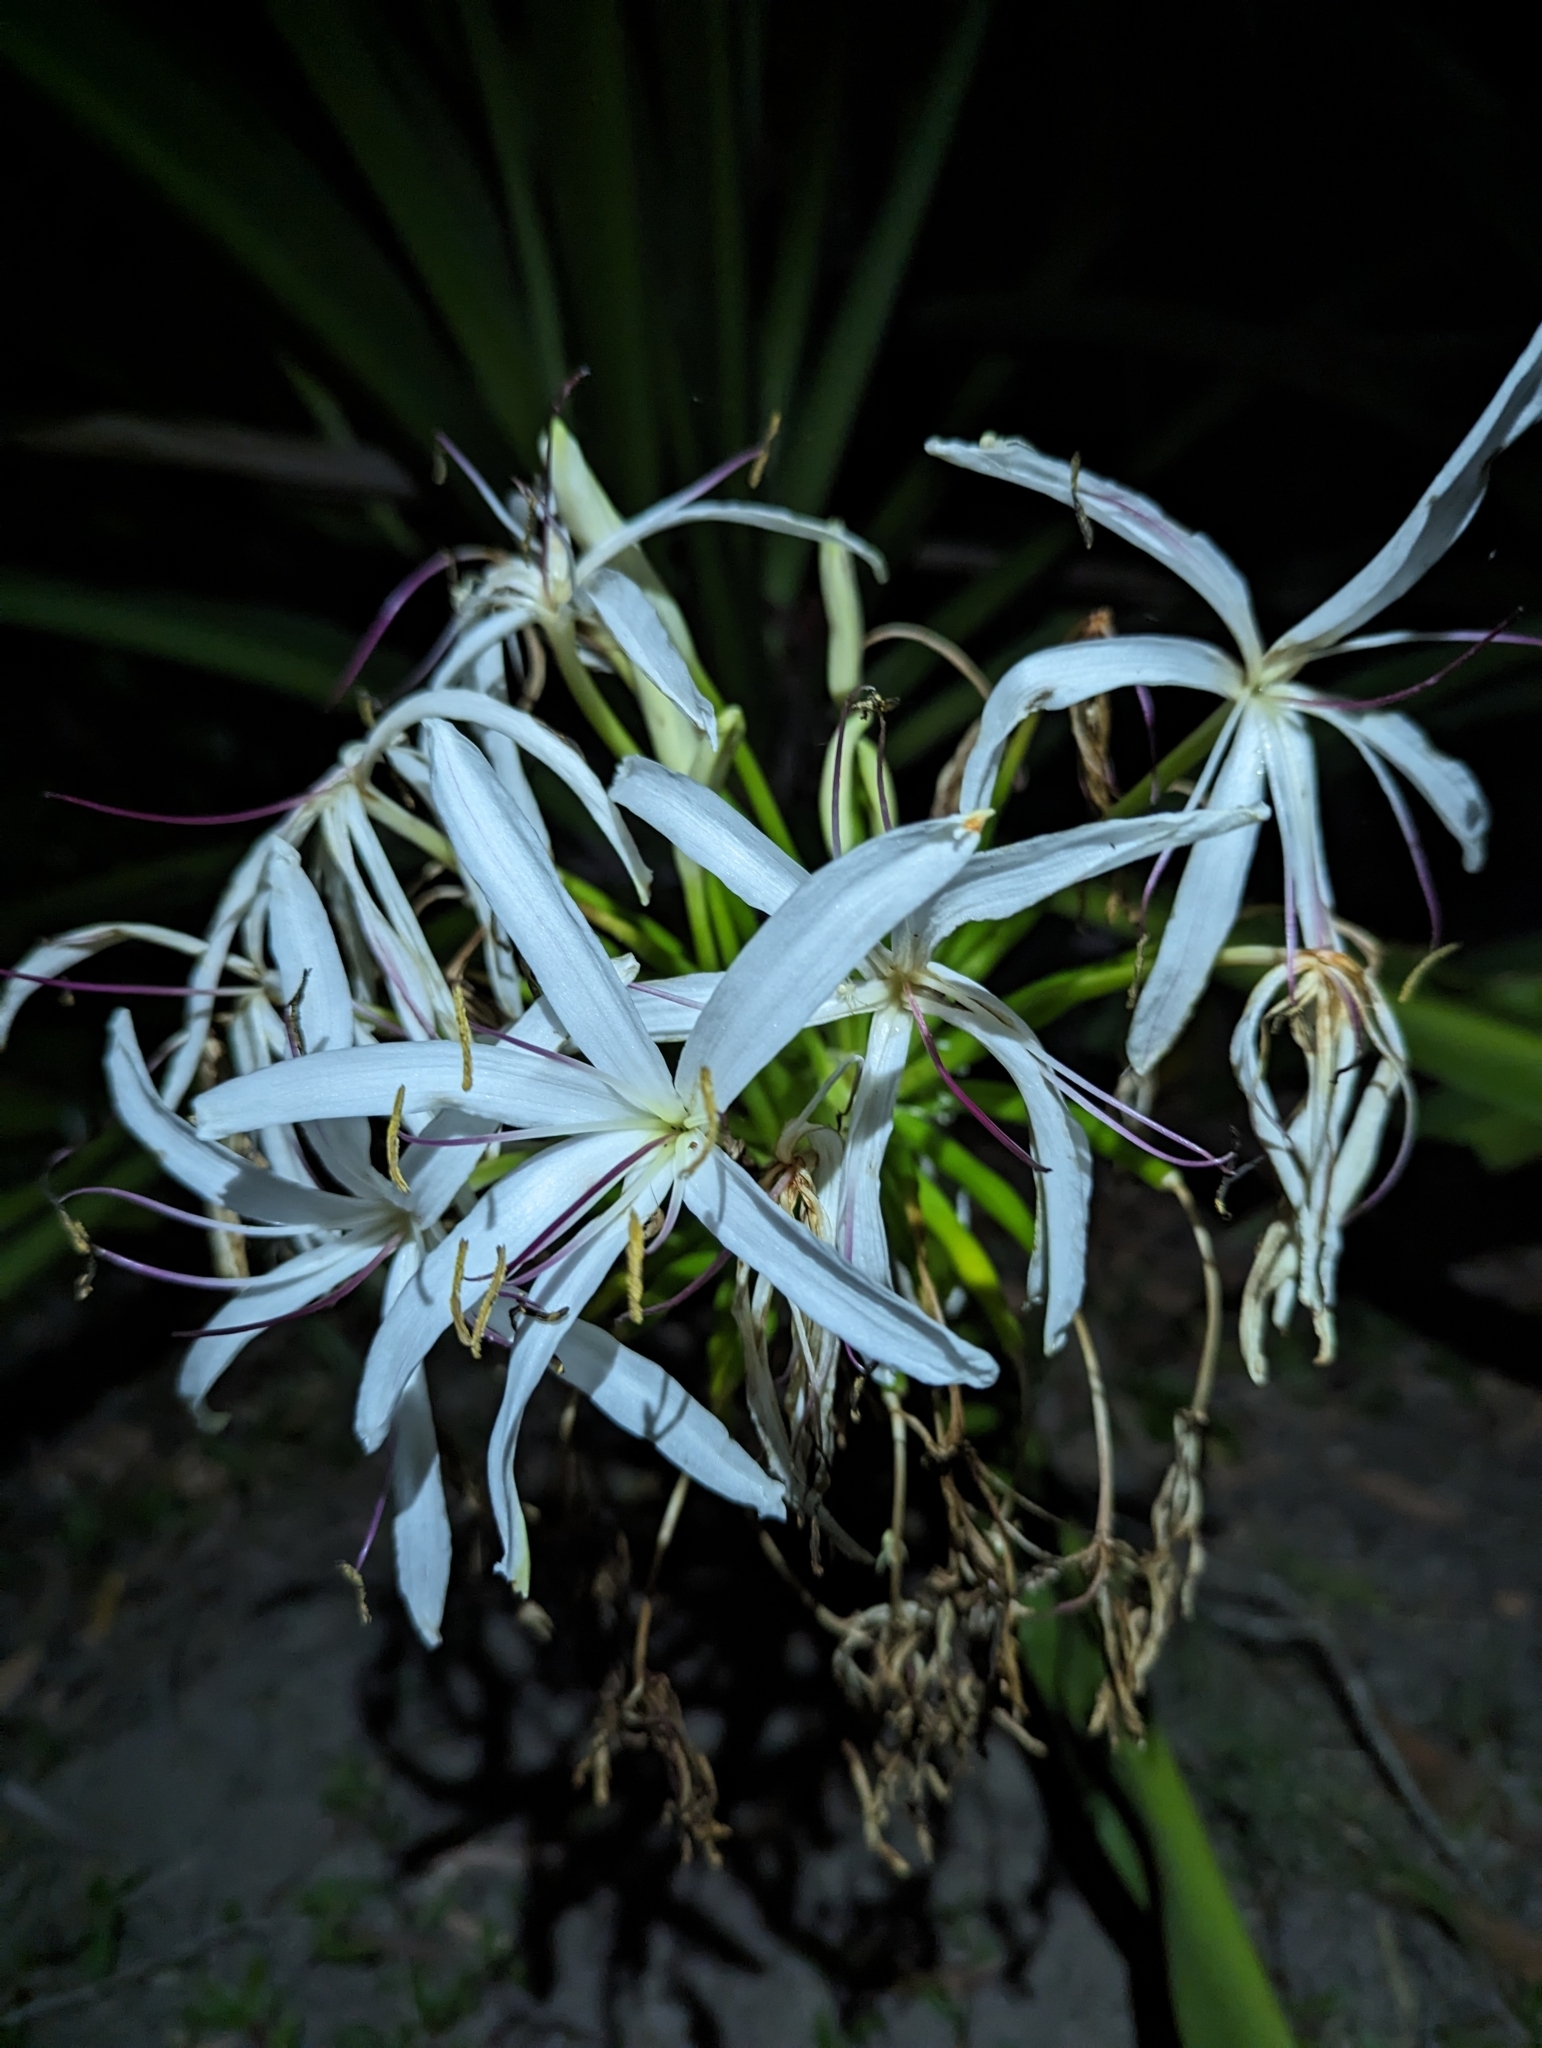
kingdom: Plantae
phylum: Tracheophyta
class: Liliopsida
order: Asparagales
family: Amaryllidaceae
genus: Crinum
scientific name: Crinum pedunculatum
